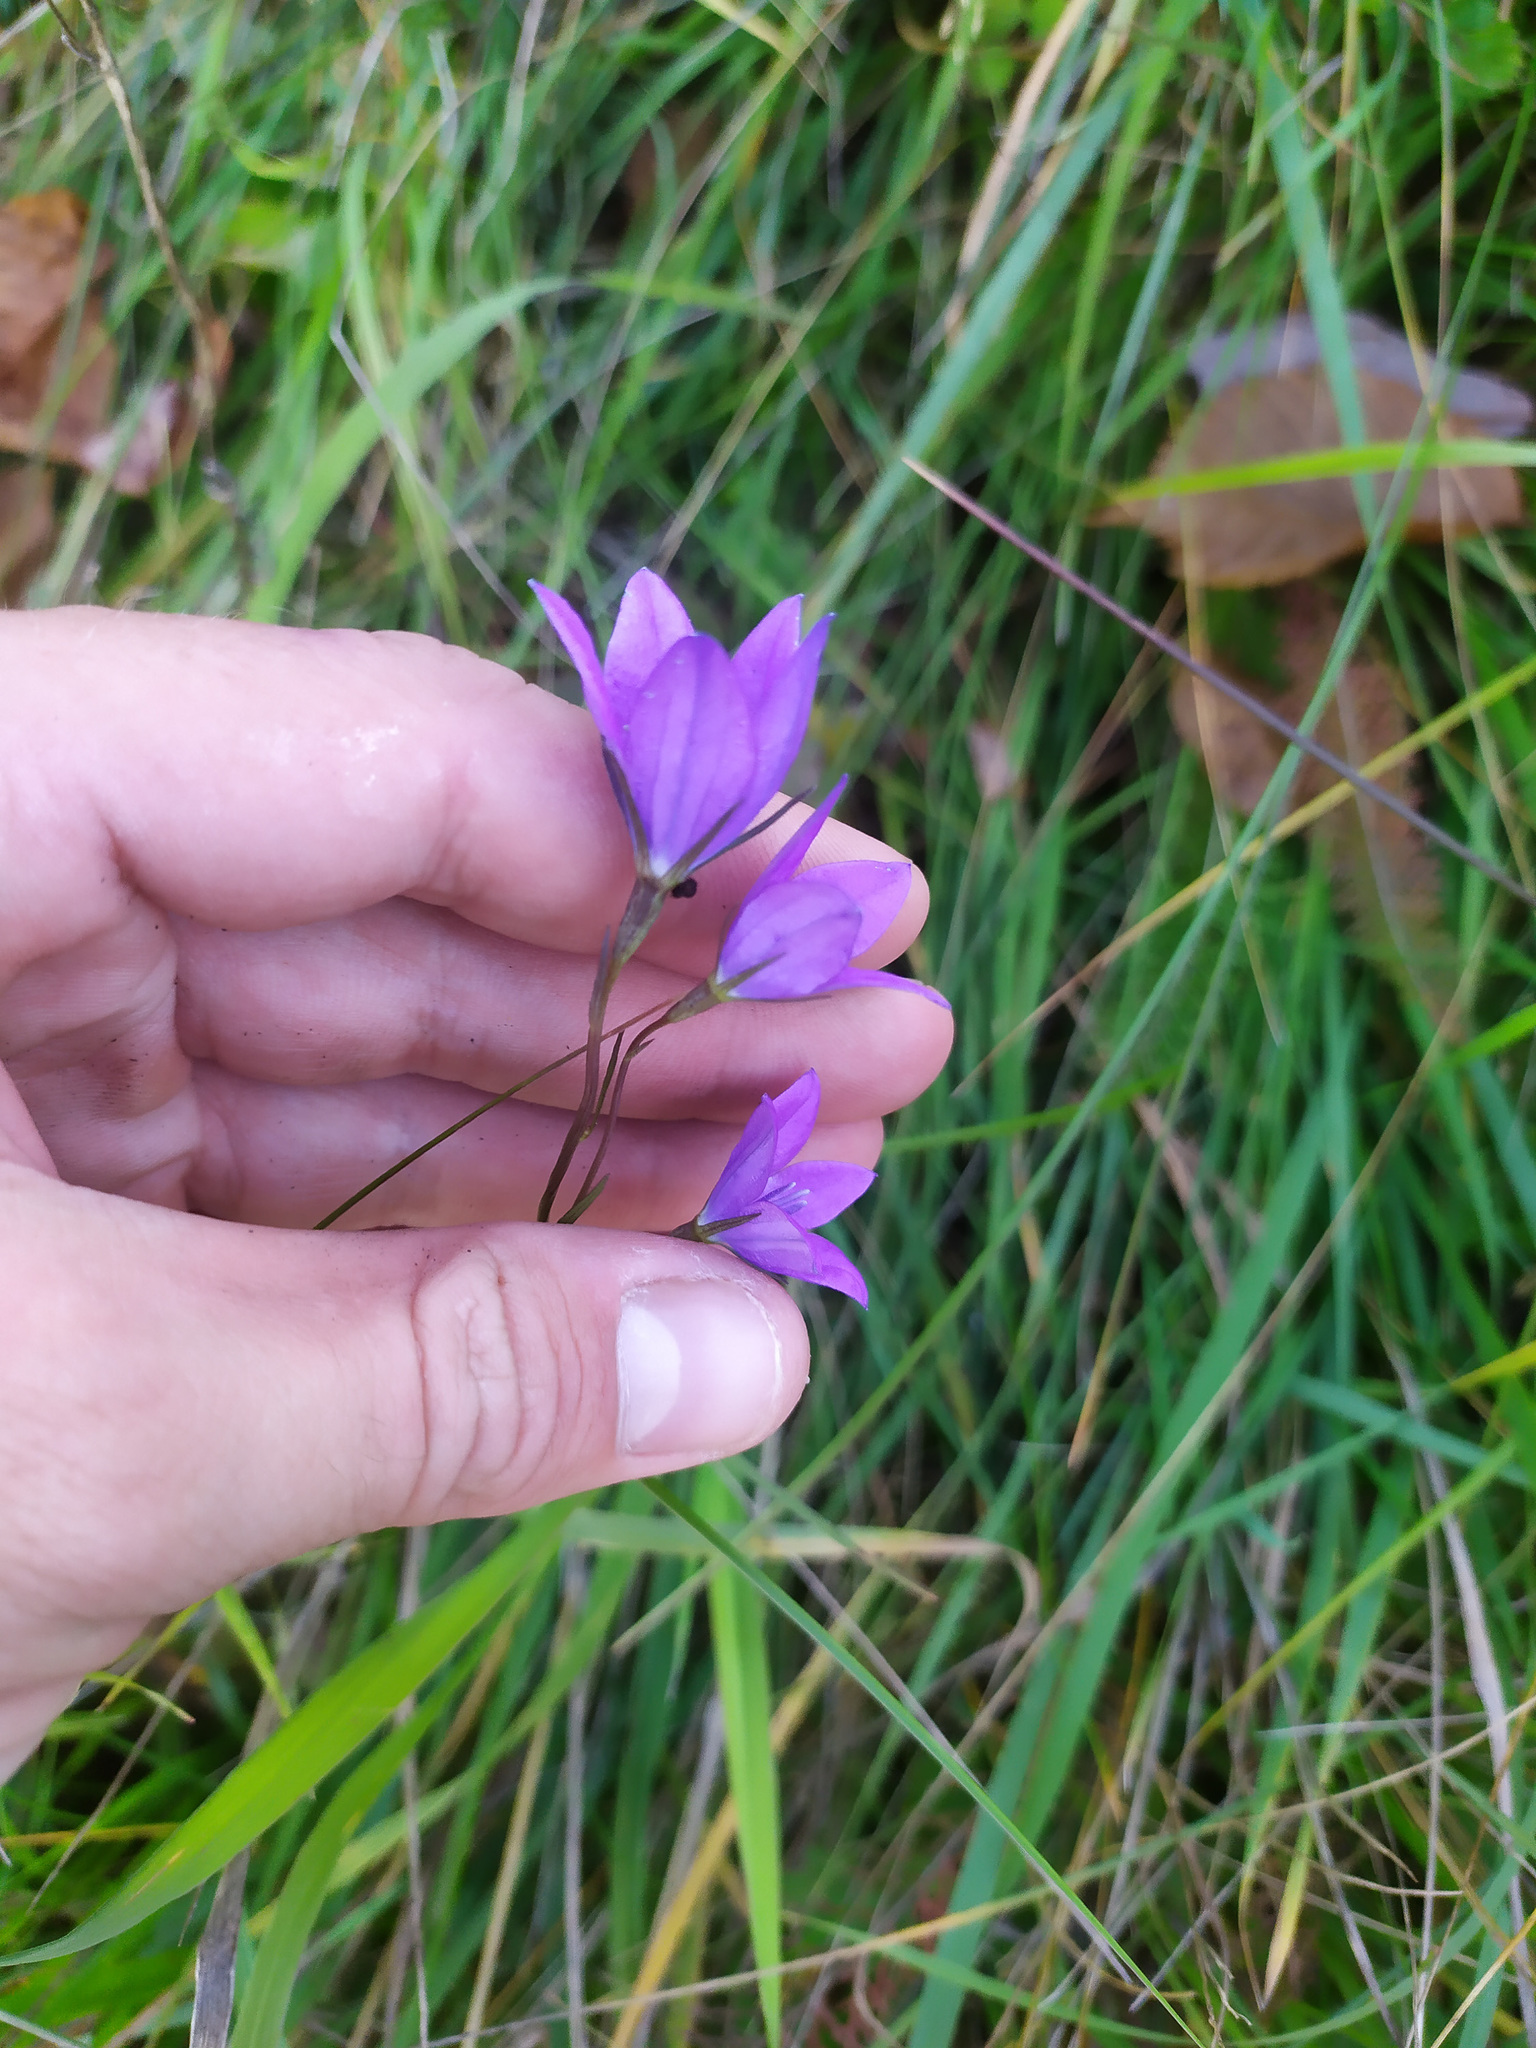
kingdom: Plantae
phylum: Tracheophyta
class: Magnoliopsida
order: Asterales
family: Campanulaceae
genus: Campanula
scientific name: Campanula stevenii
